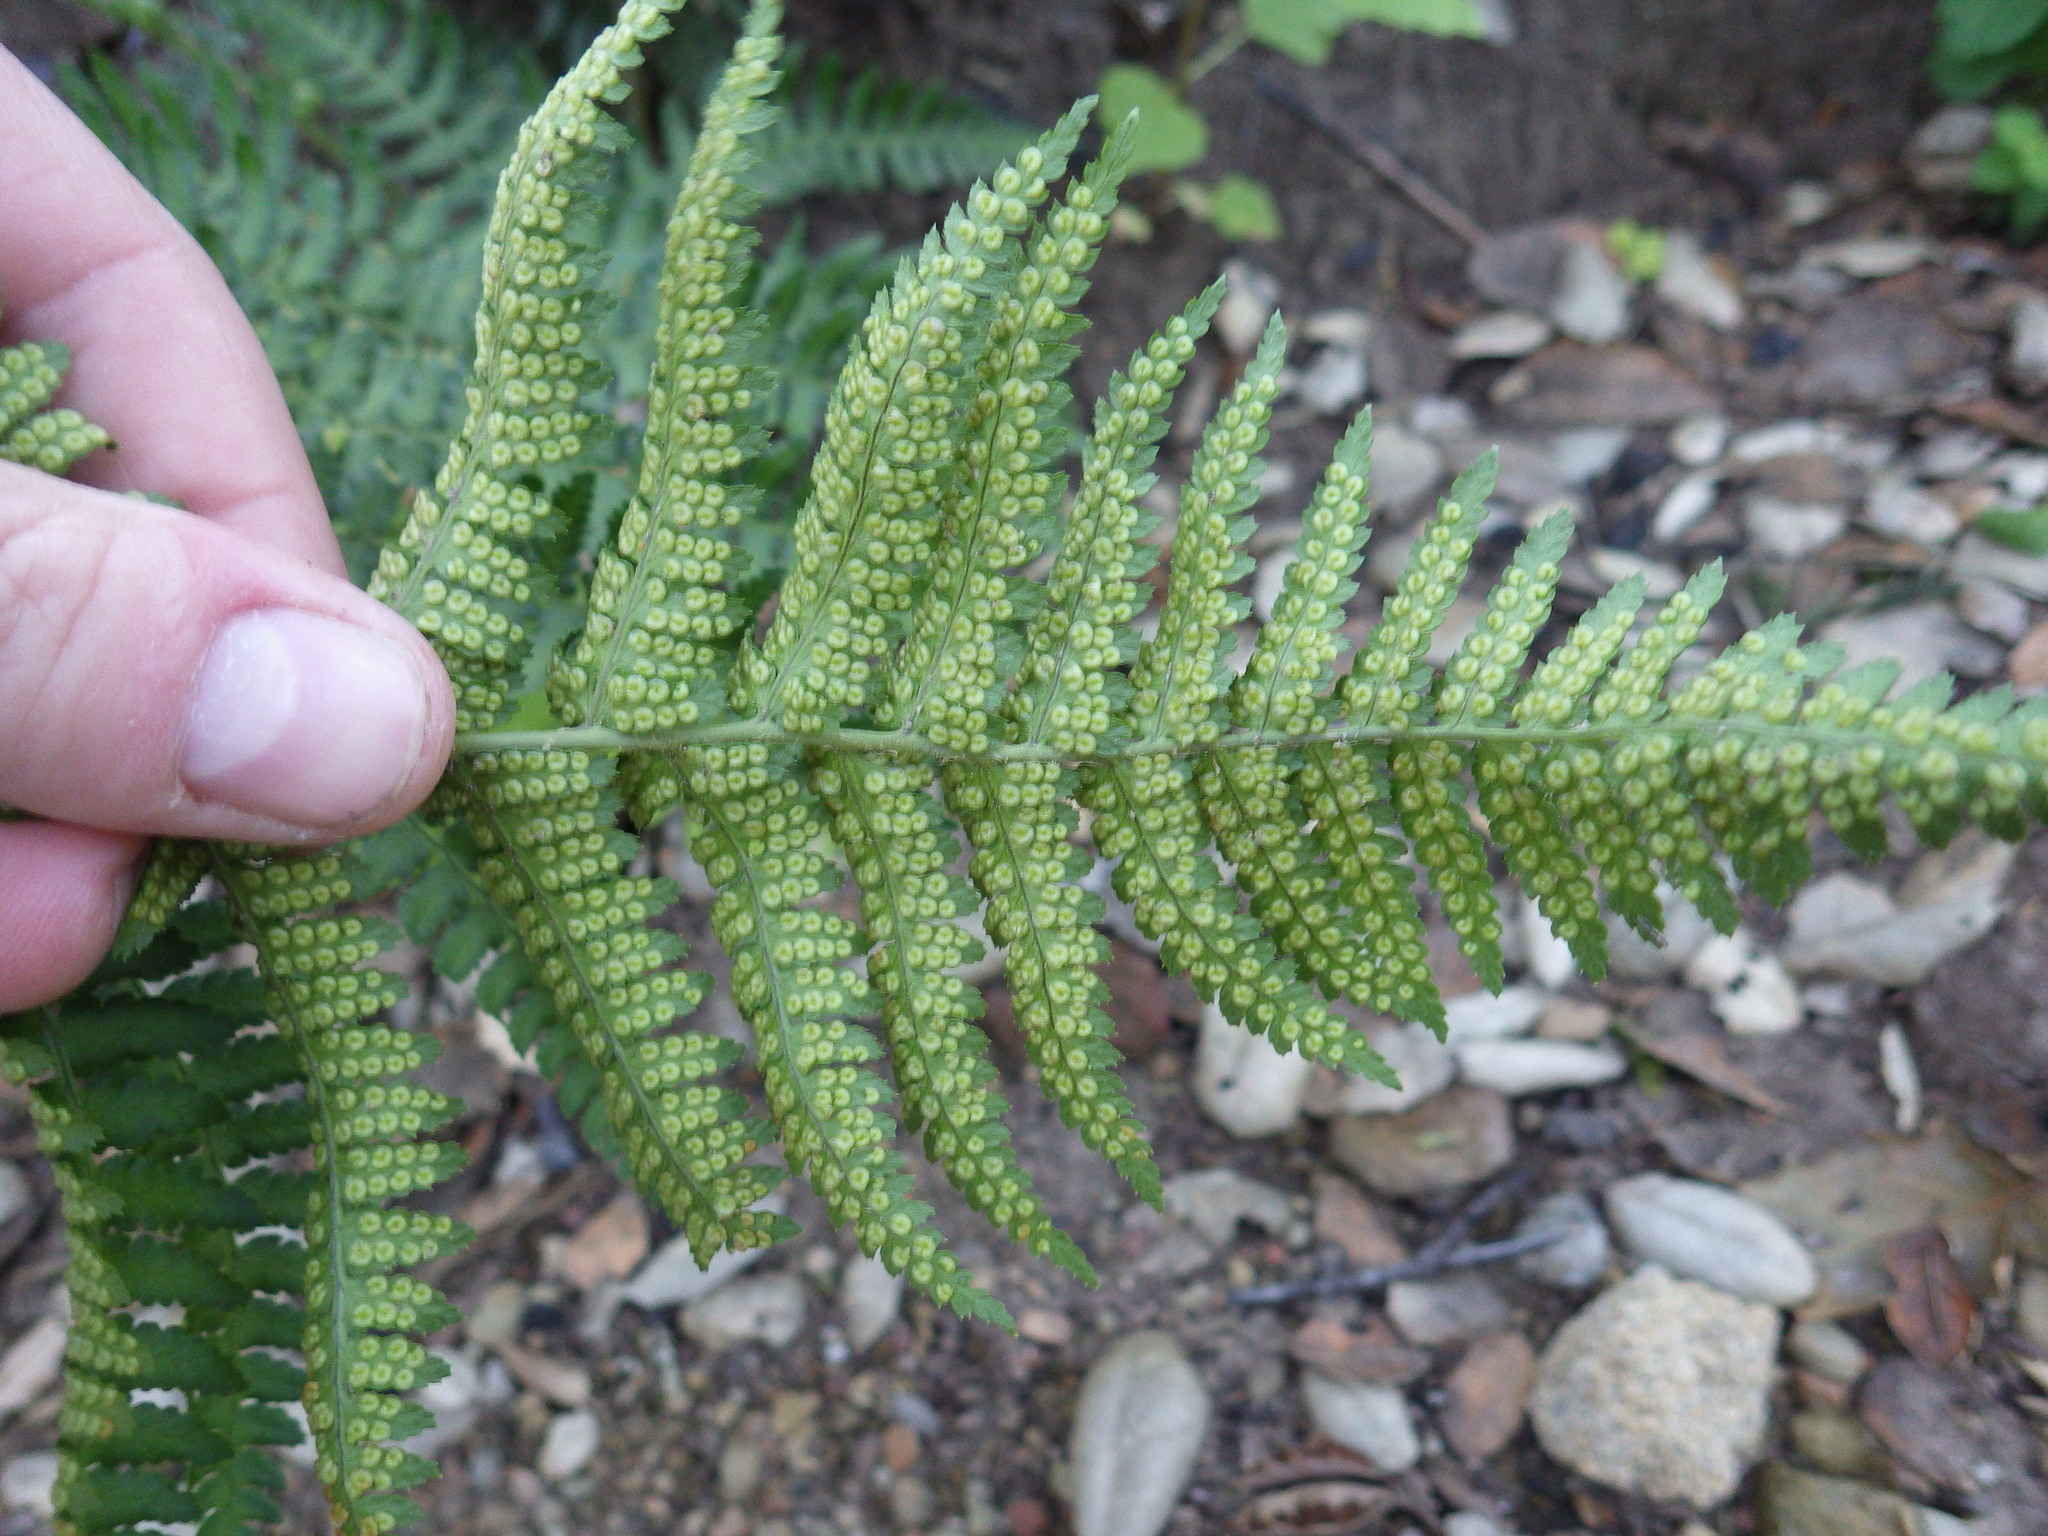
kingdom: Plantae
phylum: Tracheophyta
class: Polypodiopsida
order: Polypodiales
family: Dryopteridaceae
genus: Dryopteris
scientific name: Dryopteris arguta
